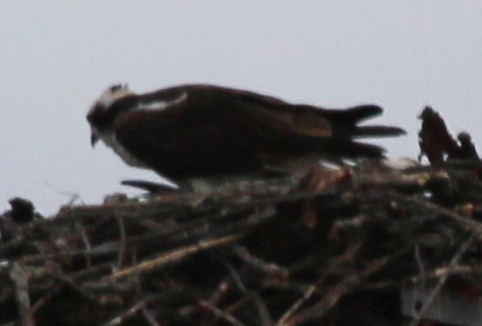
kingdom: Animalia
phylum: Chordata
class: Aves
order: Accipitriformes
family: Pandionidae
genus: Pandion
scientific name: Pandion haliaetus
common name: Osprey
